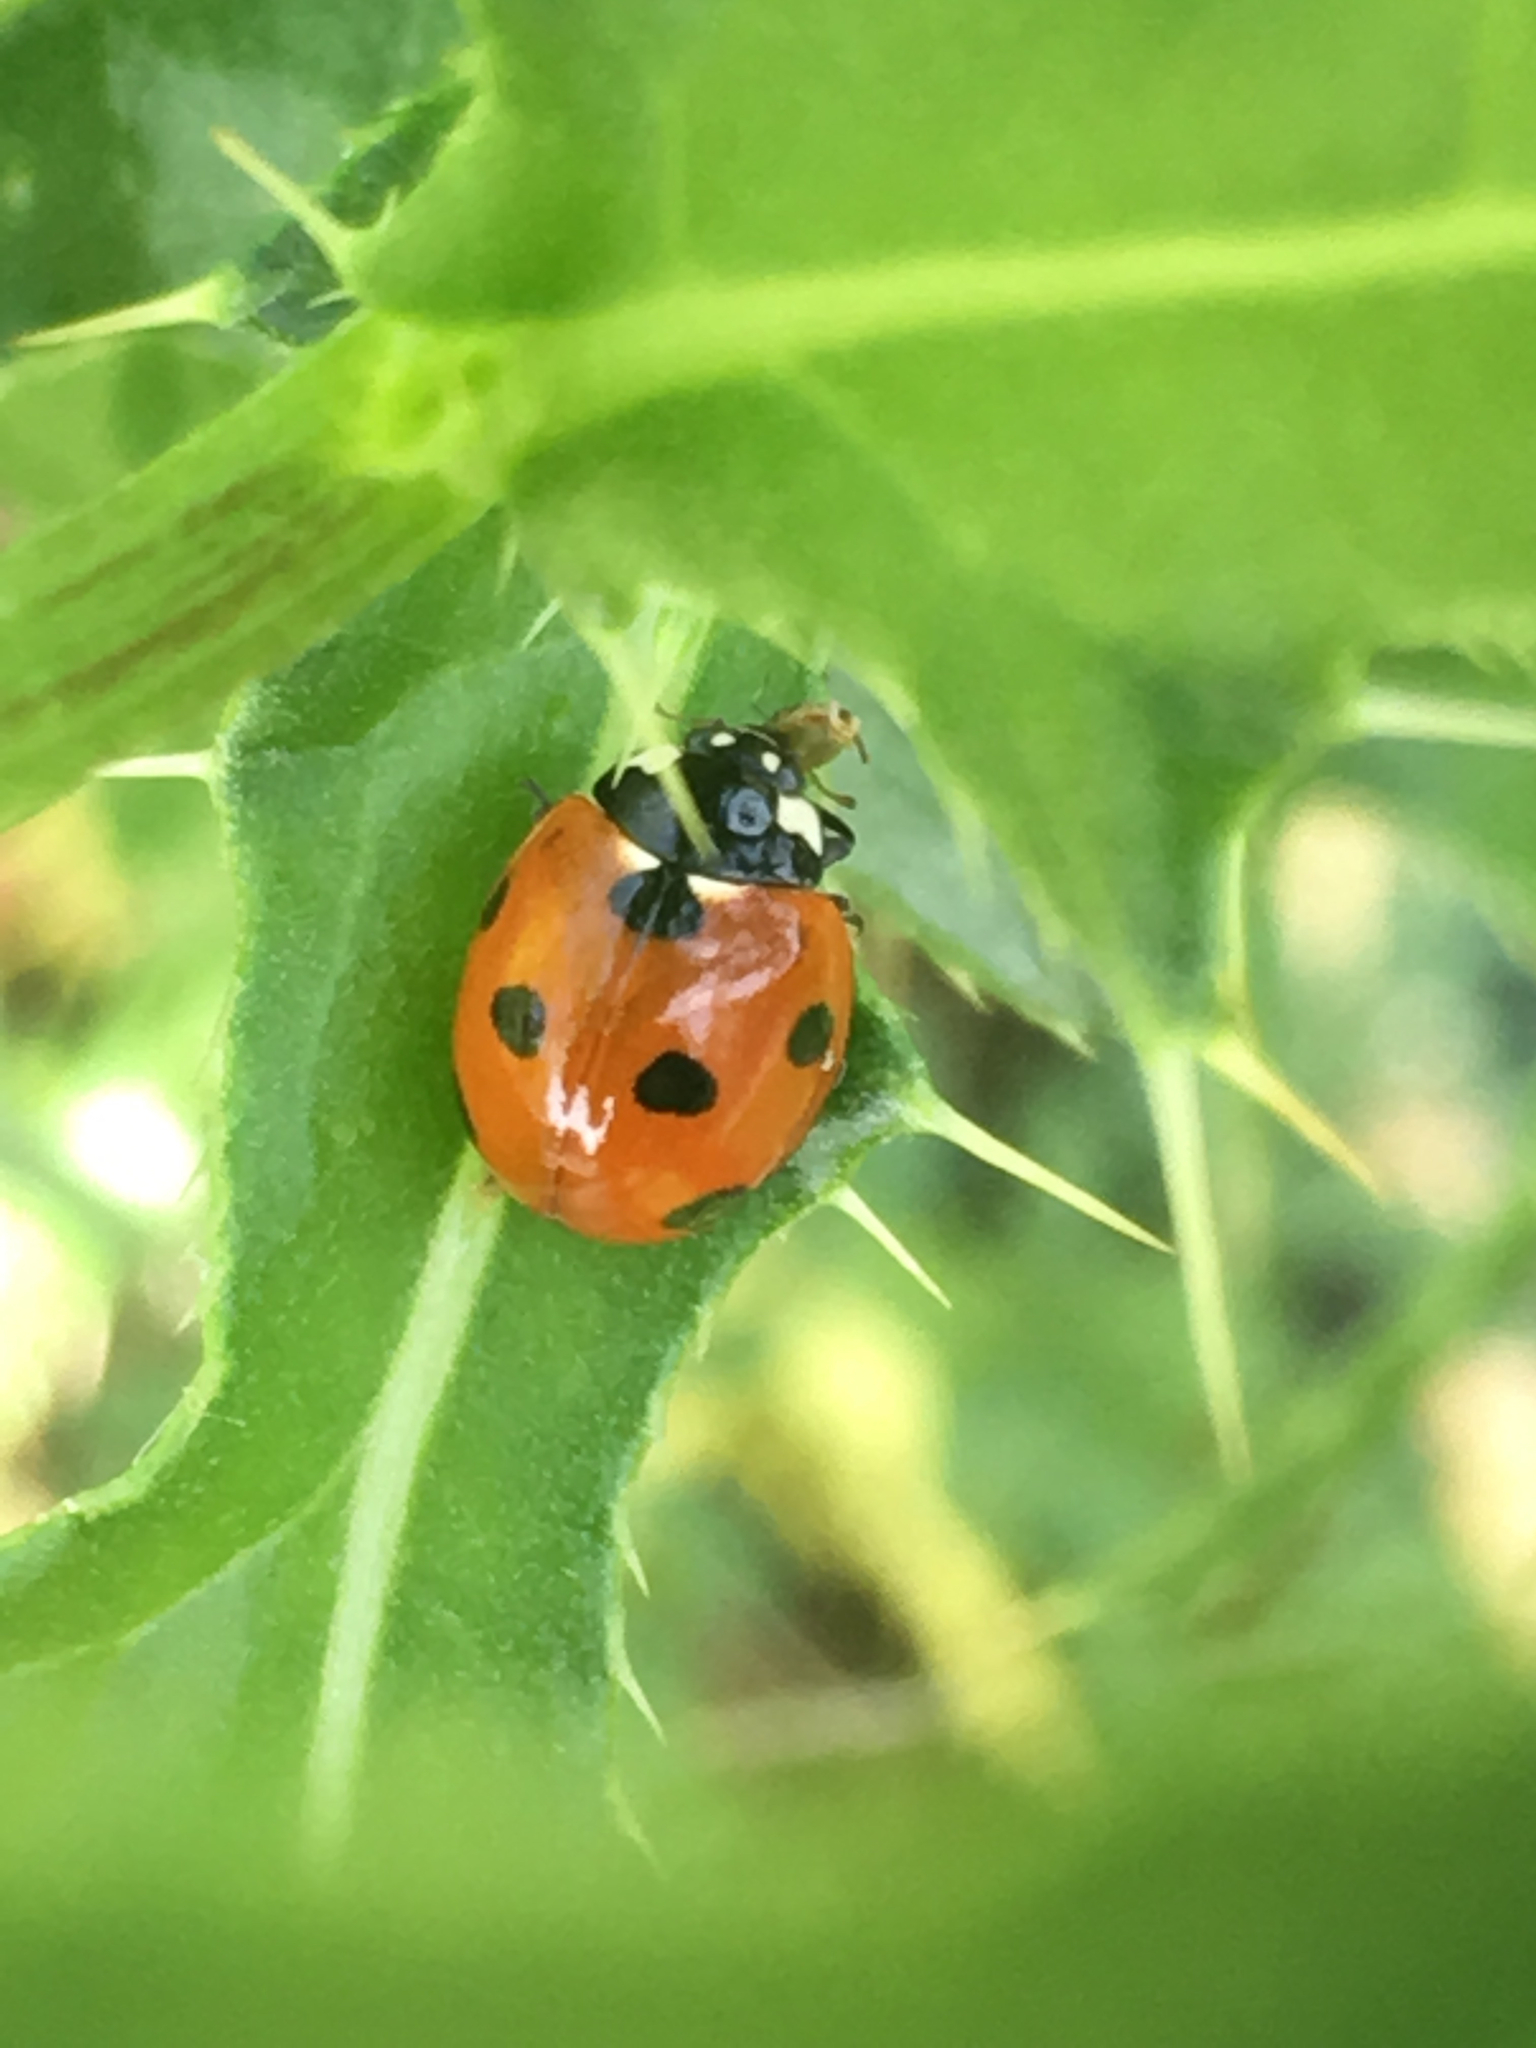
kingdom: Animalia
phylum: Arthropoda
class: Insecta
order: Coleoptera
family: Coccinellidae
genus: Coccinella
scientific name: Coccinella septempunctata
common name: Sevenspotted lady beetle
